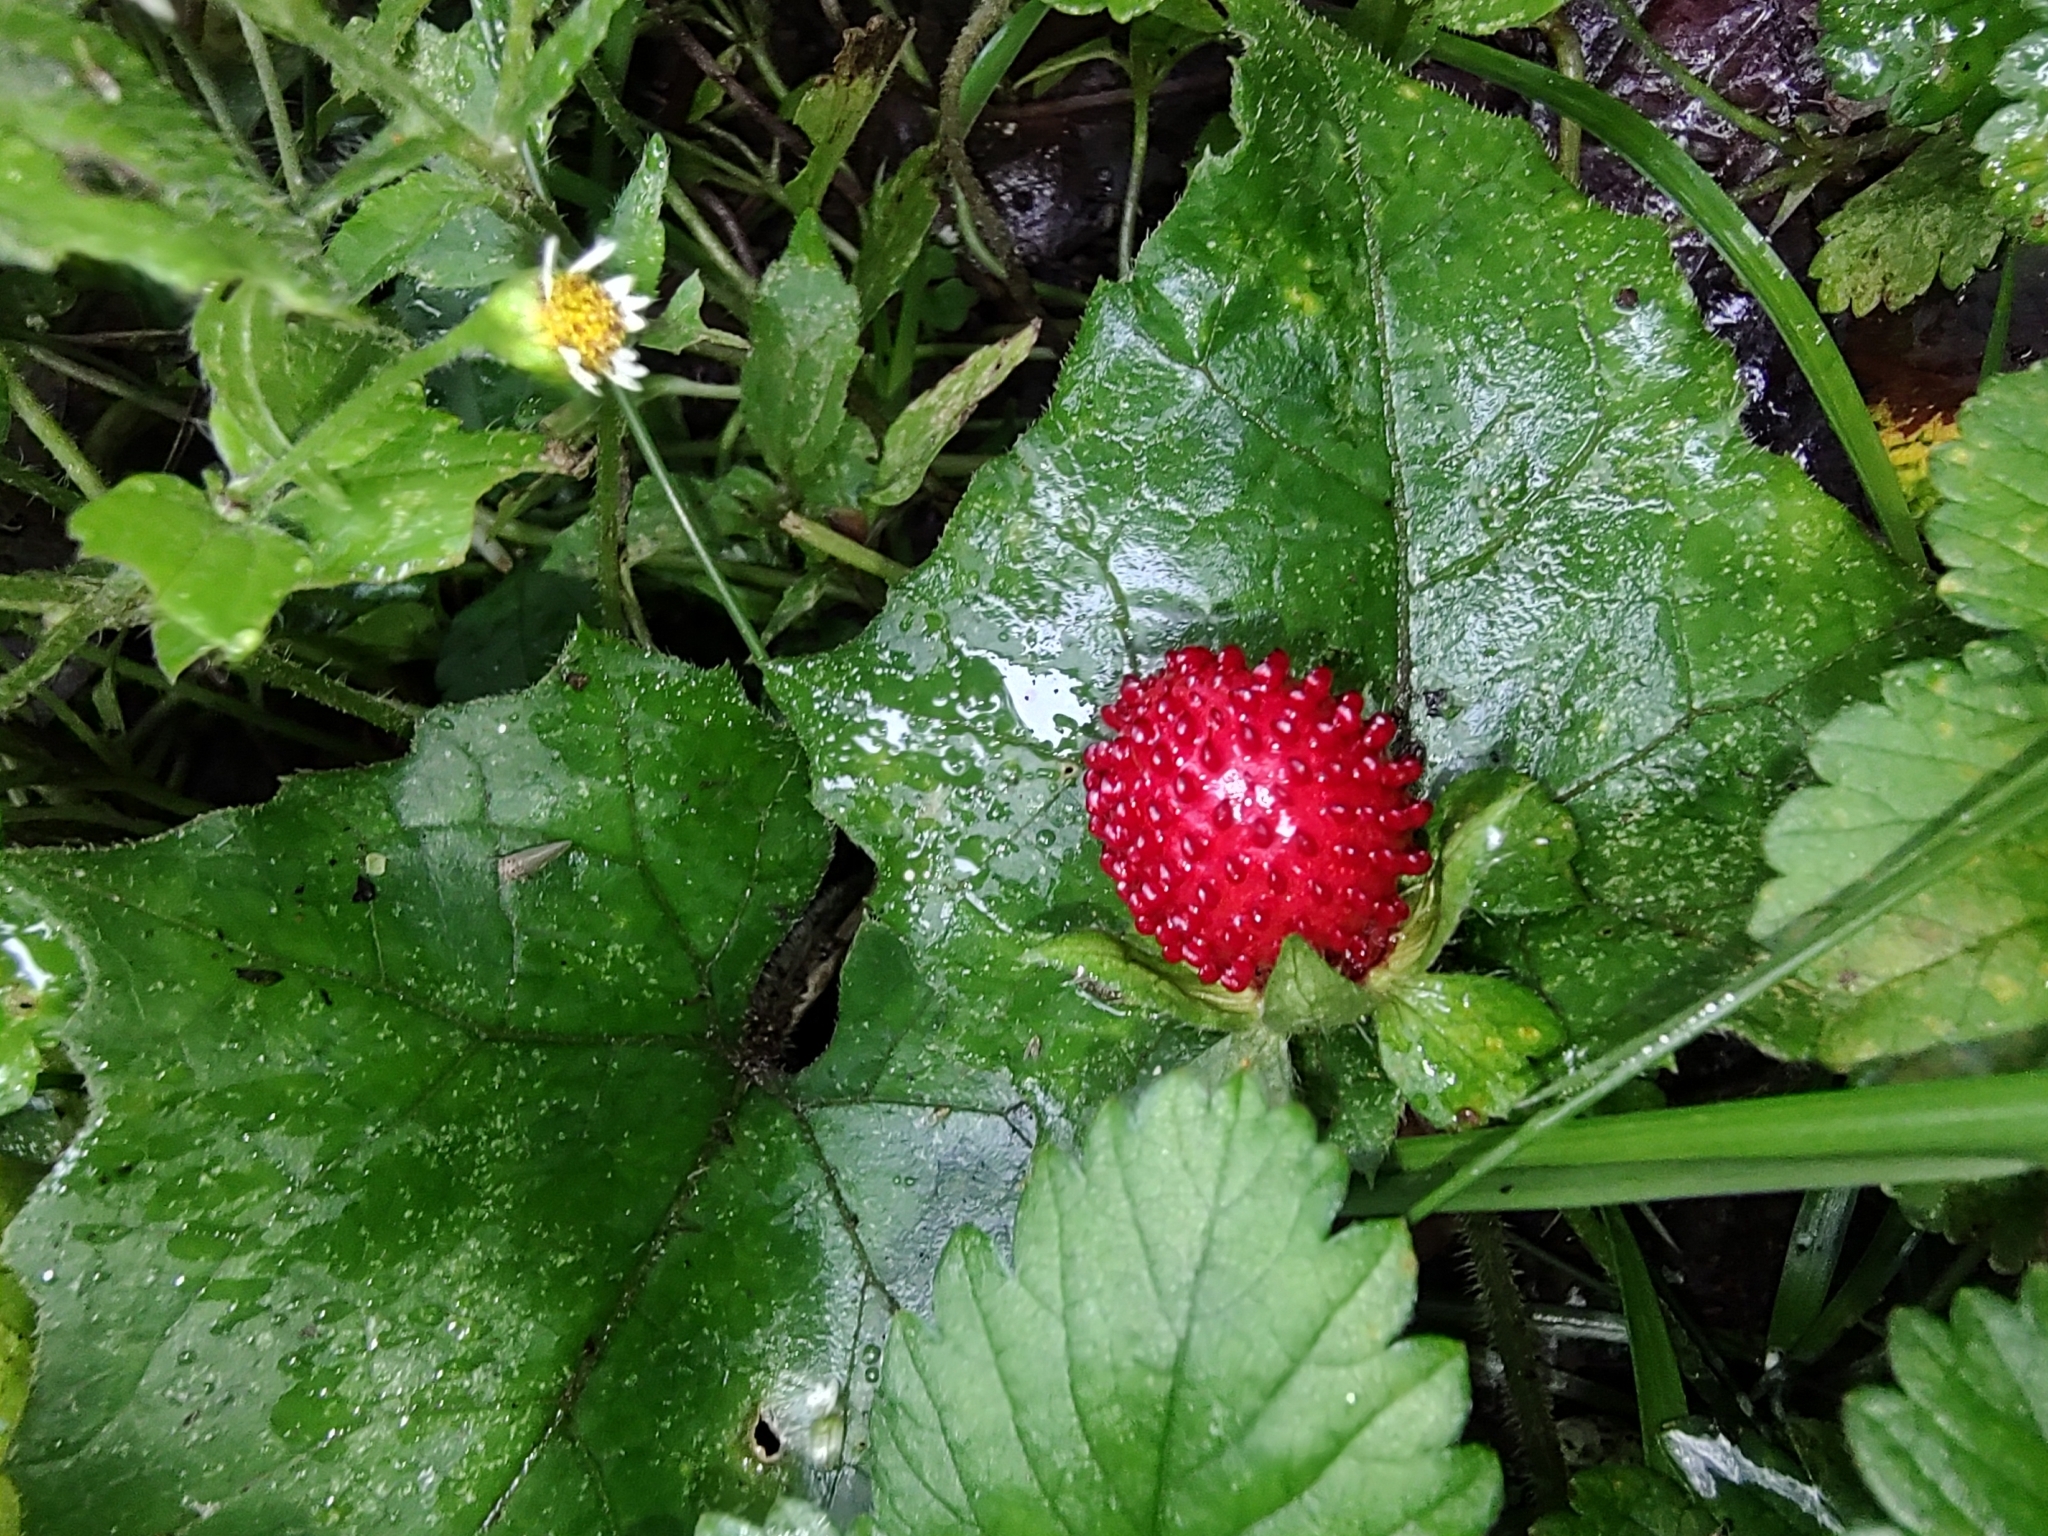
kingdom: Plantae
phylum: Tracheophyta
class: Magnoliopsida
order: Rosales
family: Rosaceae
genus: Potentilla
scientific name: Potentilla indica
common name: Yellow-flowered strawberry
